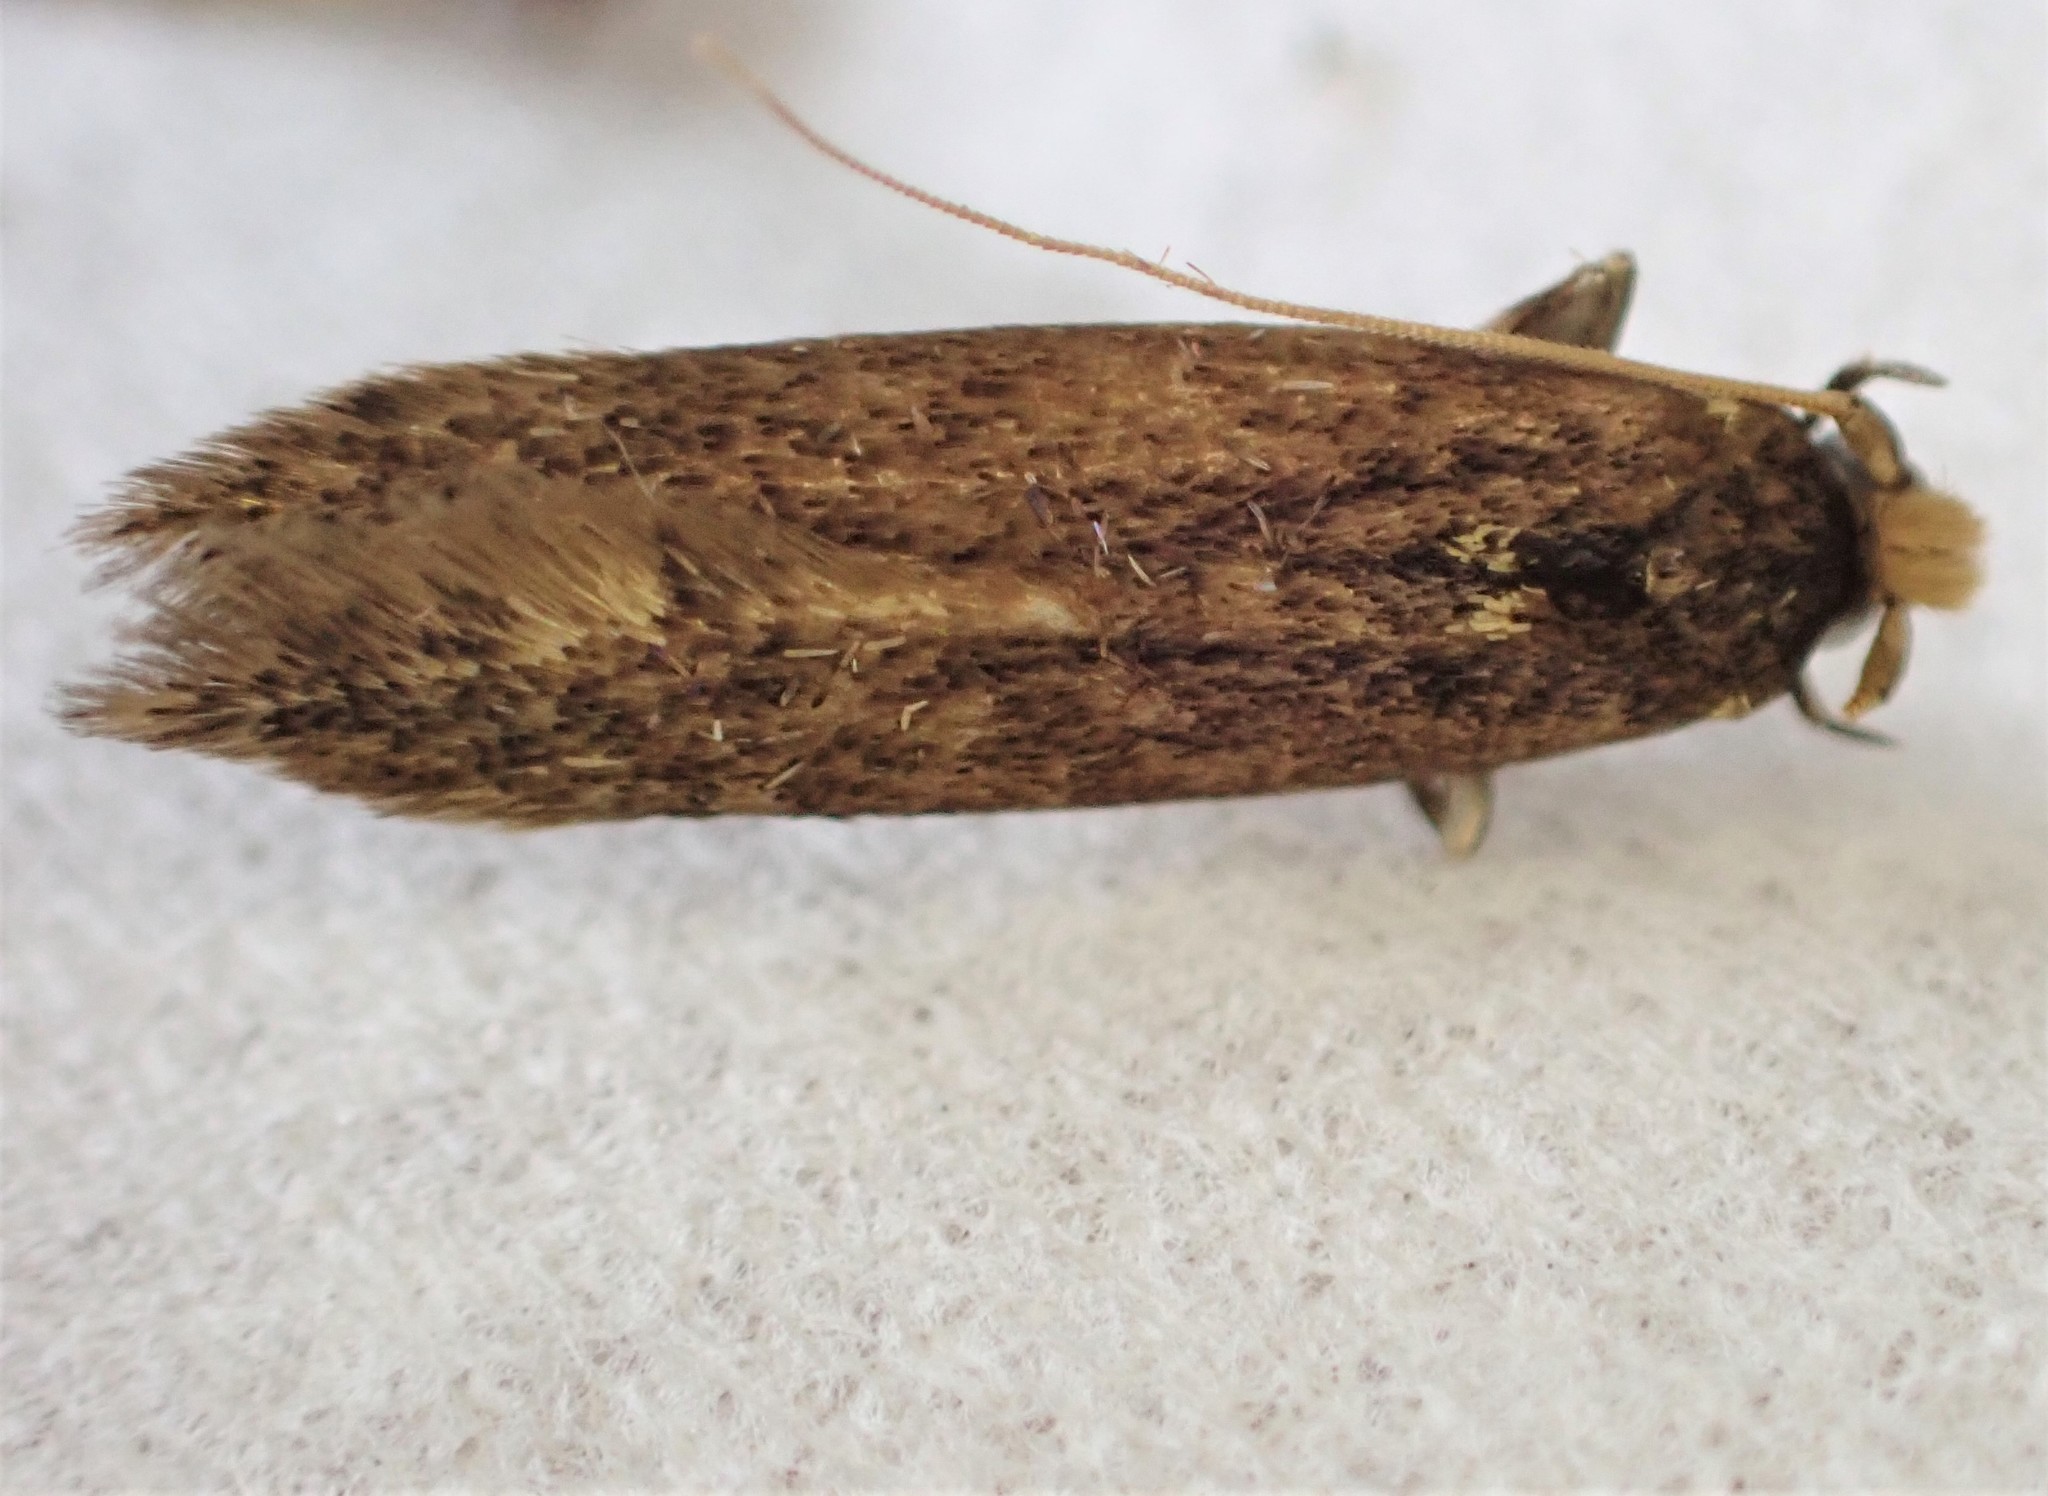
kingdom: Animalia
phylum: Arthropoda
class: Insecta
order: Lepidoptera
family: Tineidae
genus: Opogona
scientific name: Opogona omoscopa
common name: Moth
